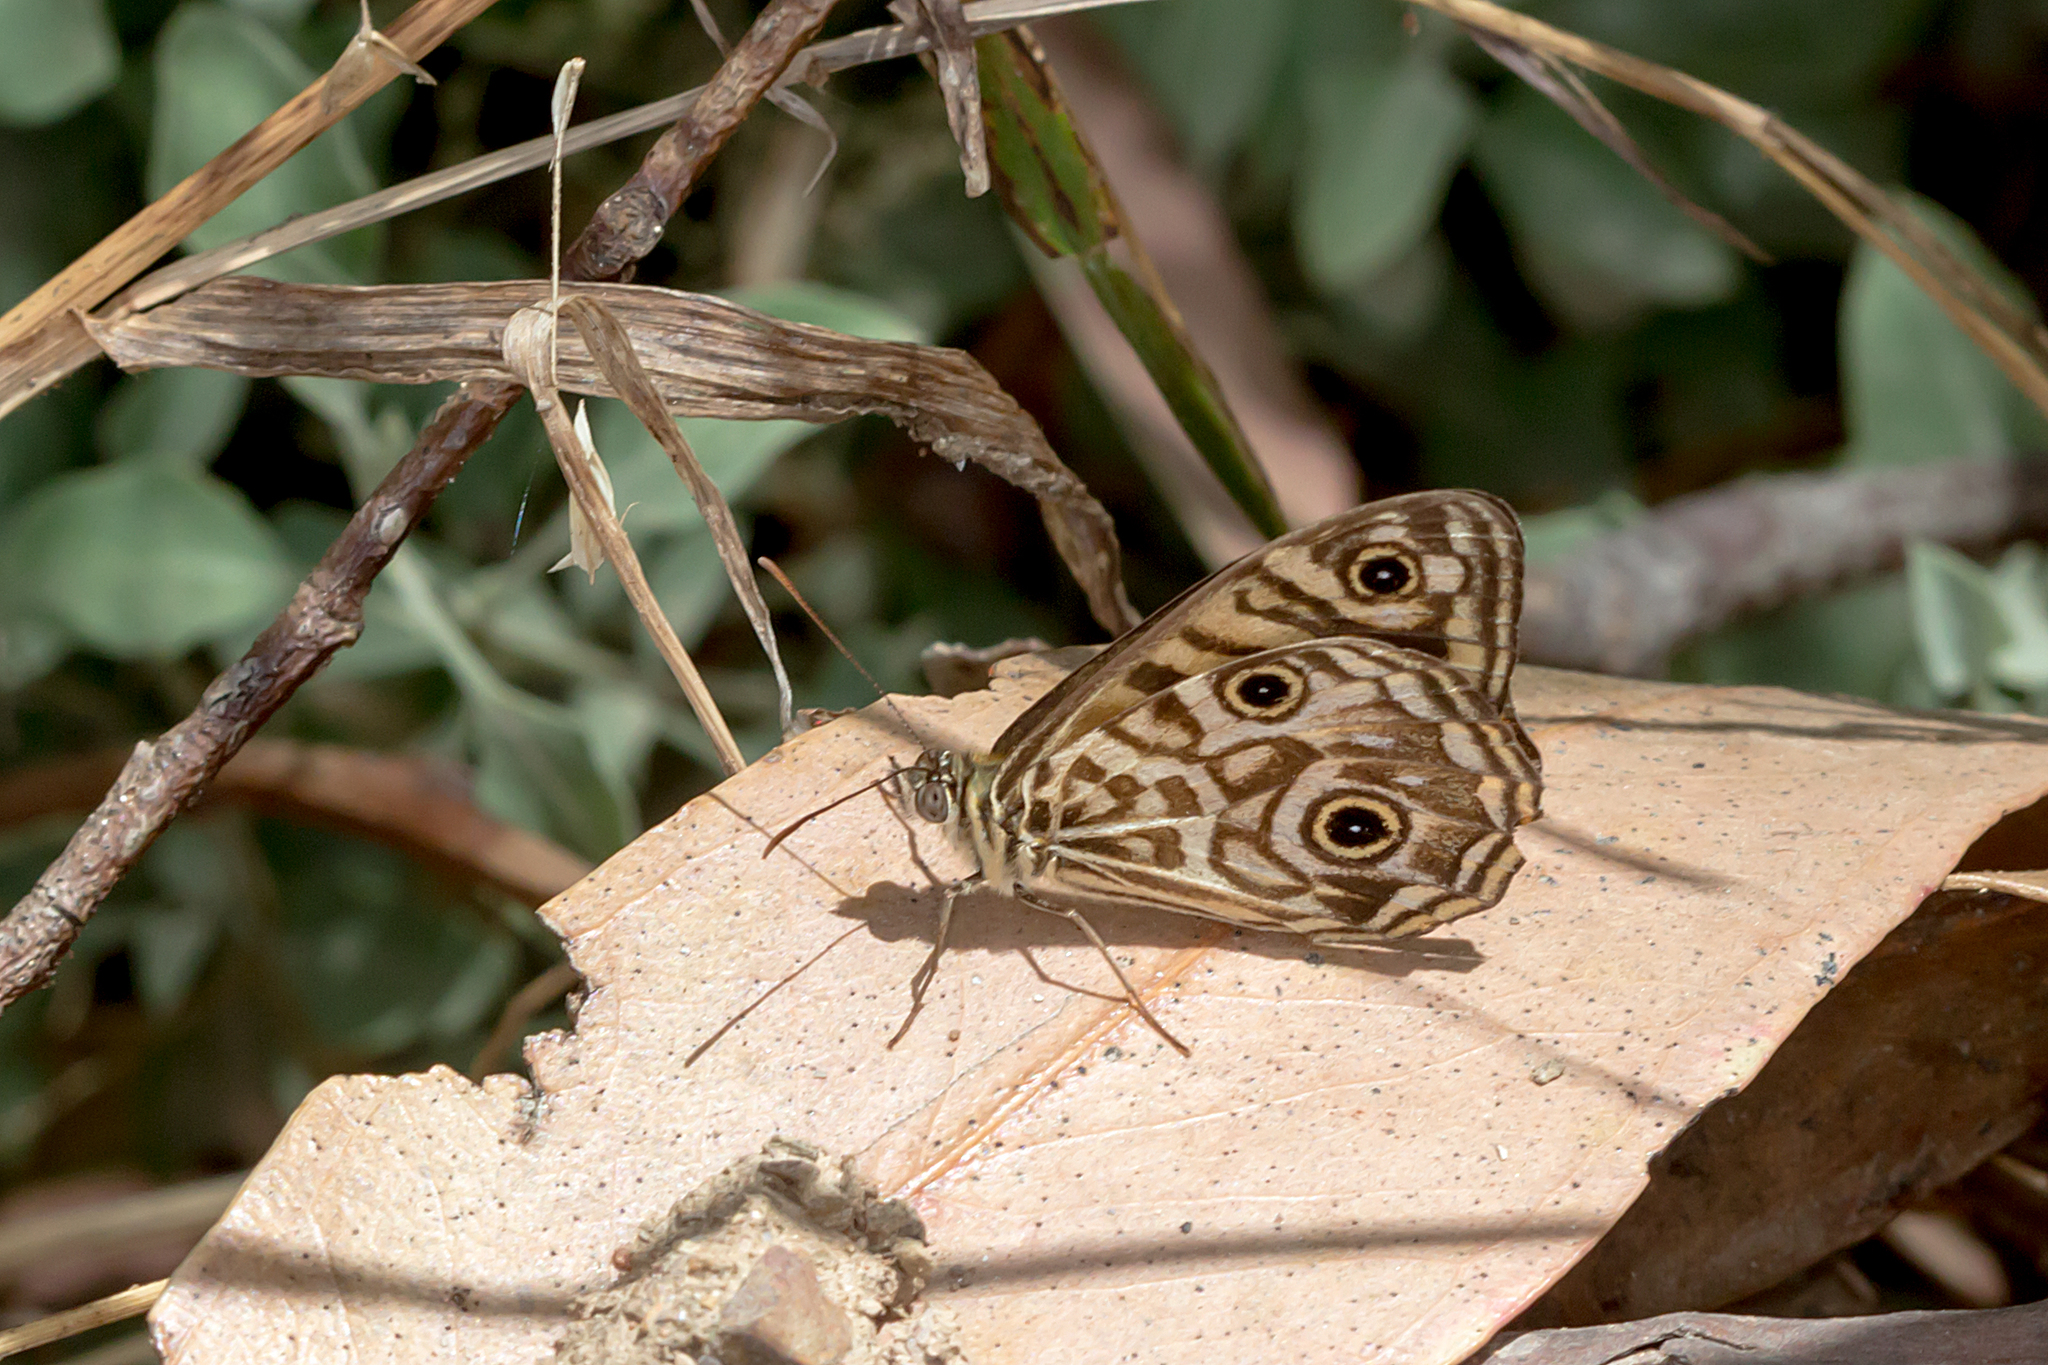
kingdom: Animalia
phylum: Arthropoda
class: Insecta
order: Lepidoptera
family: Nymphalidae
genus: Geitoneura
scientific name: Geitoneura acantha
